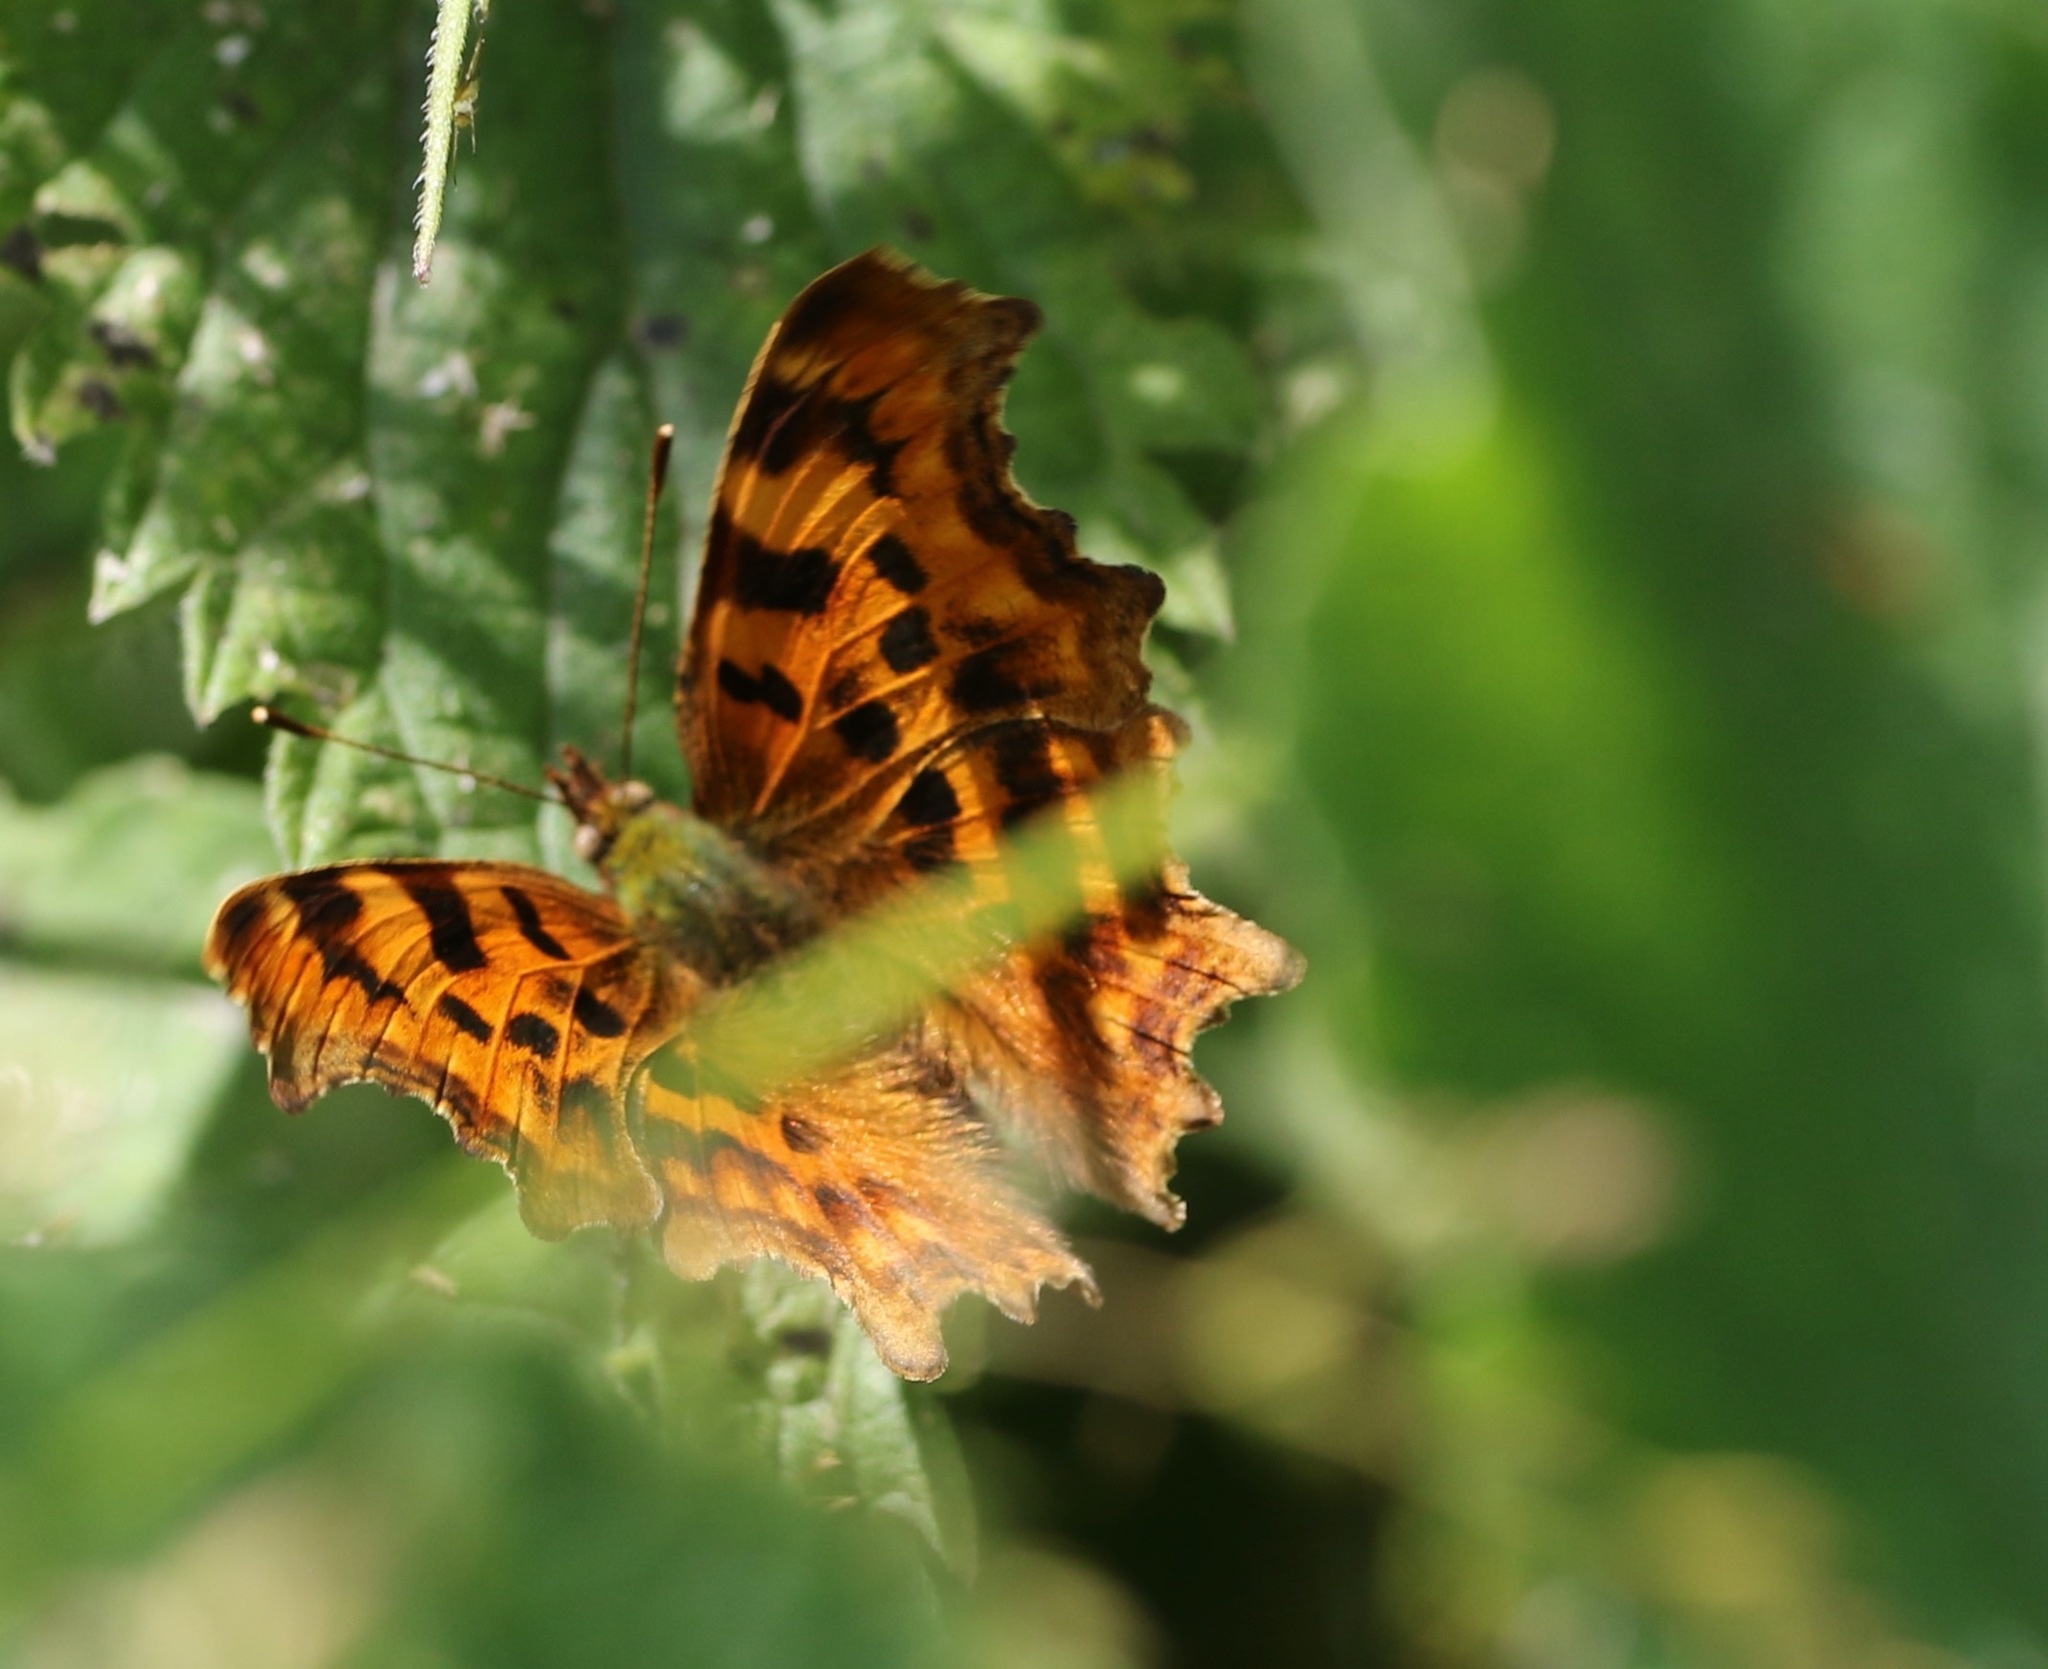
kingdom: Animalia
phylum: Arthropoda
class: Insecta
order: Lepidoptera
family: Nymphalidae
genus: Polygonia
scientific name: Polygonia c-album
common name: Comma
